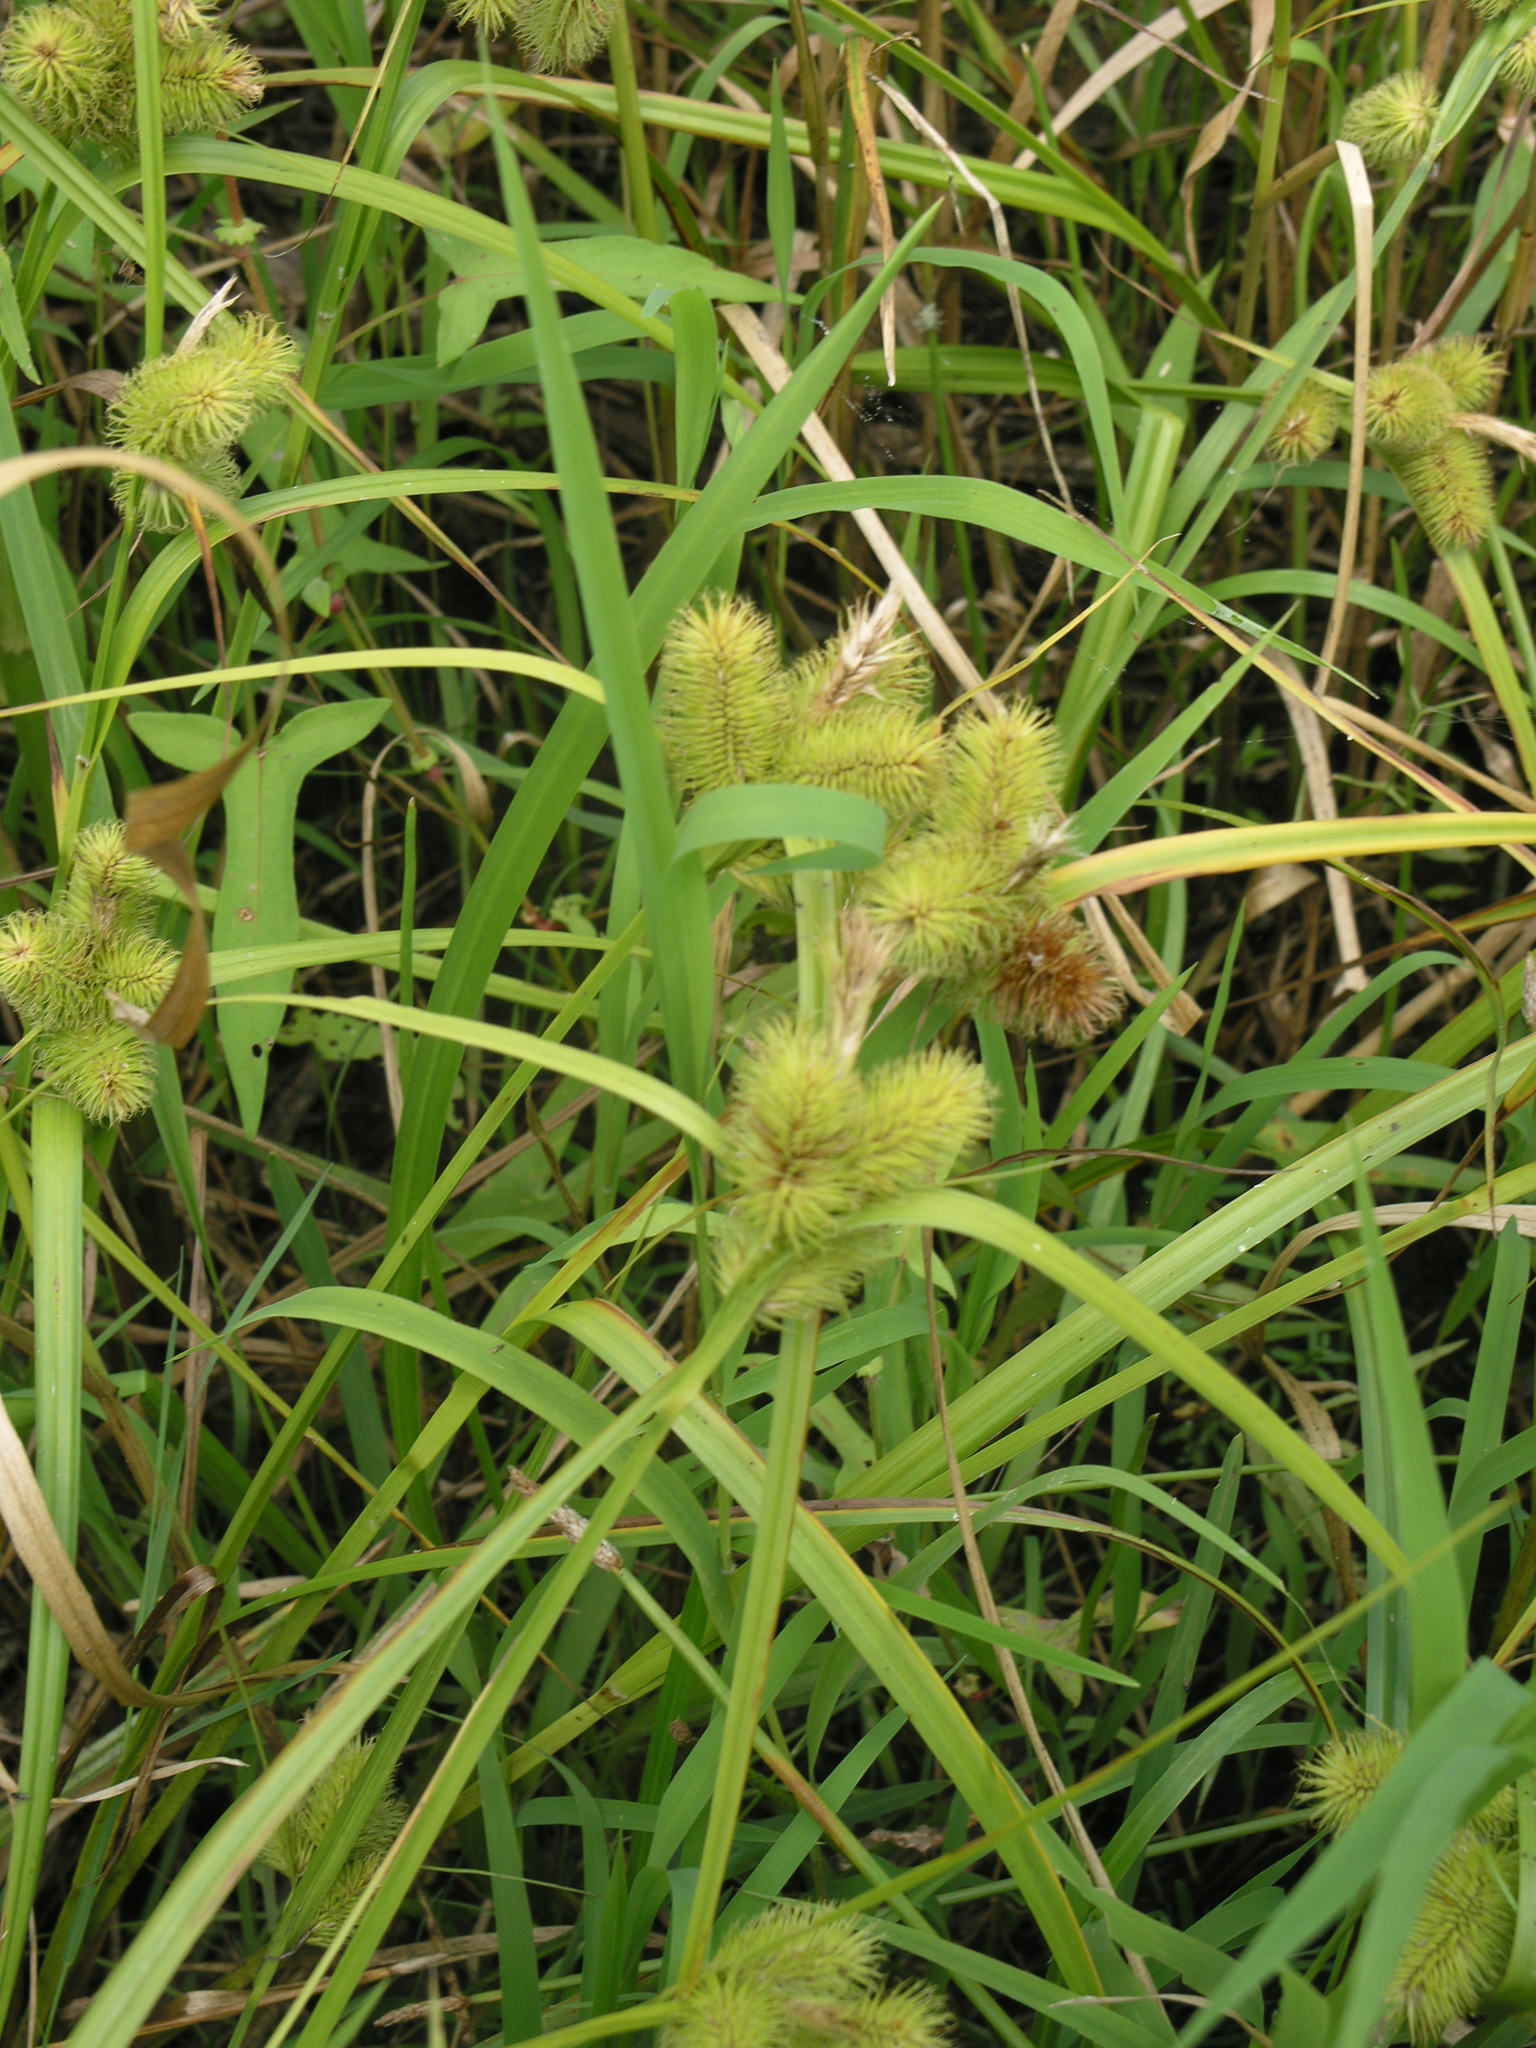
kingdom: Plantae
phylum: Tracheophyta
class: Liliopsida
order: Poales
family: Cyperaceae
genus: Carex
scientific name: Carex capricornis
